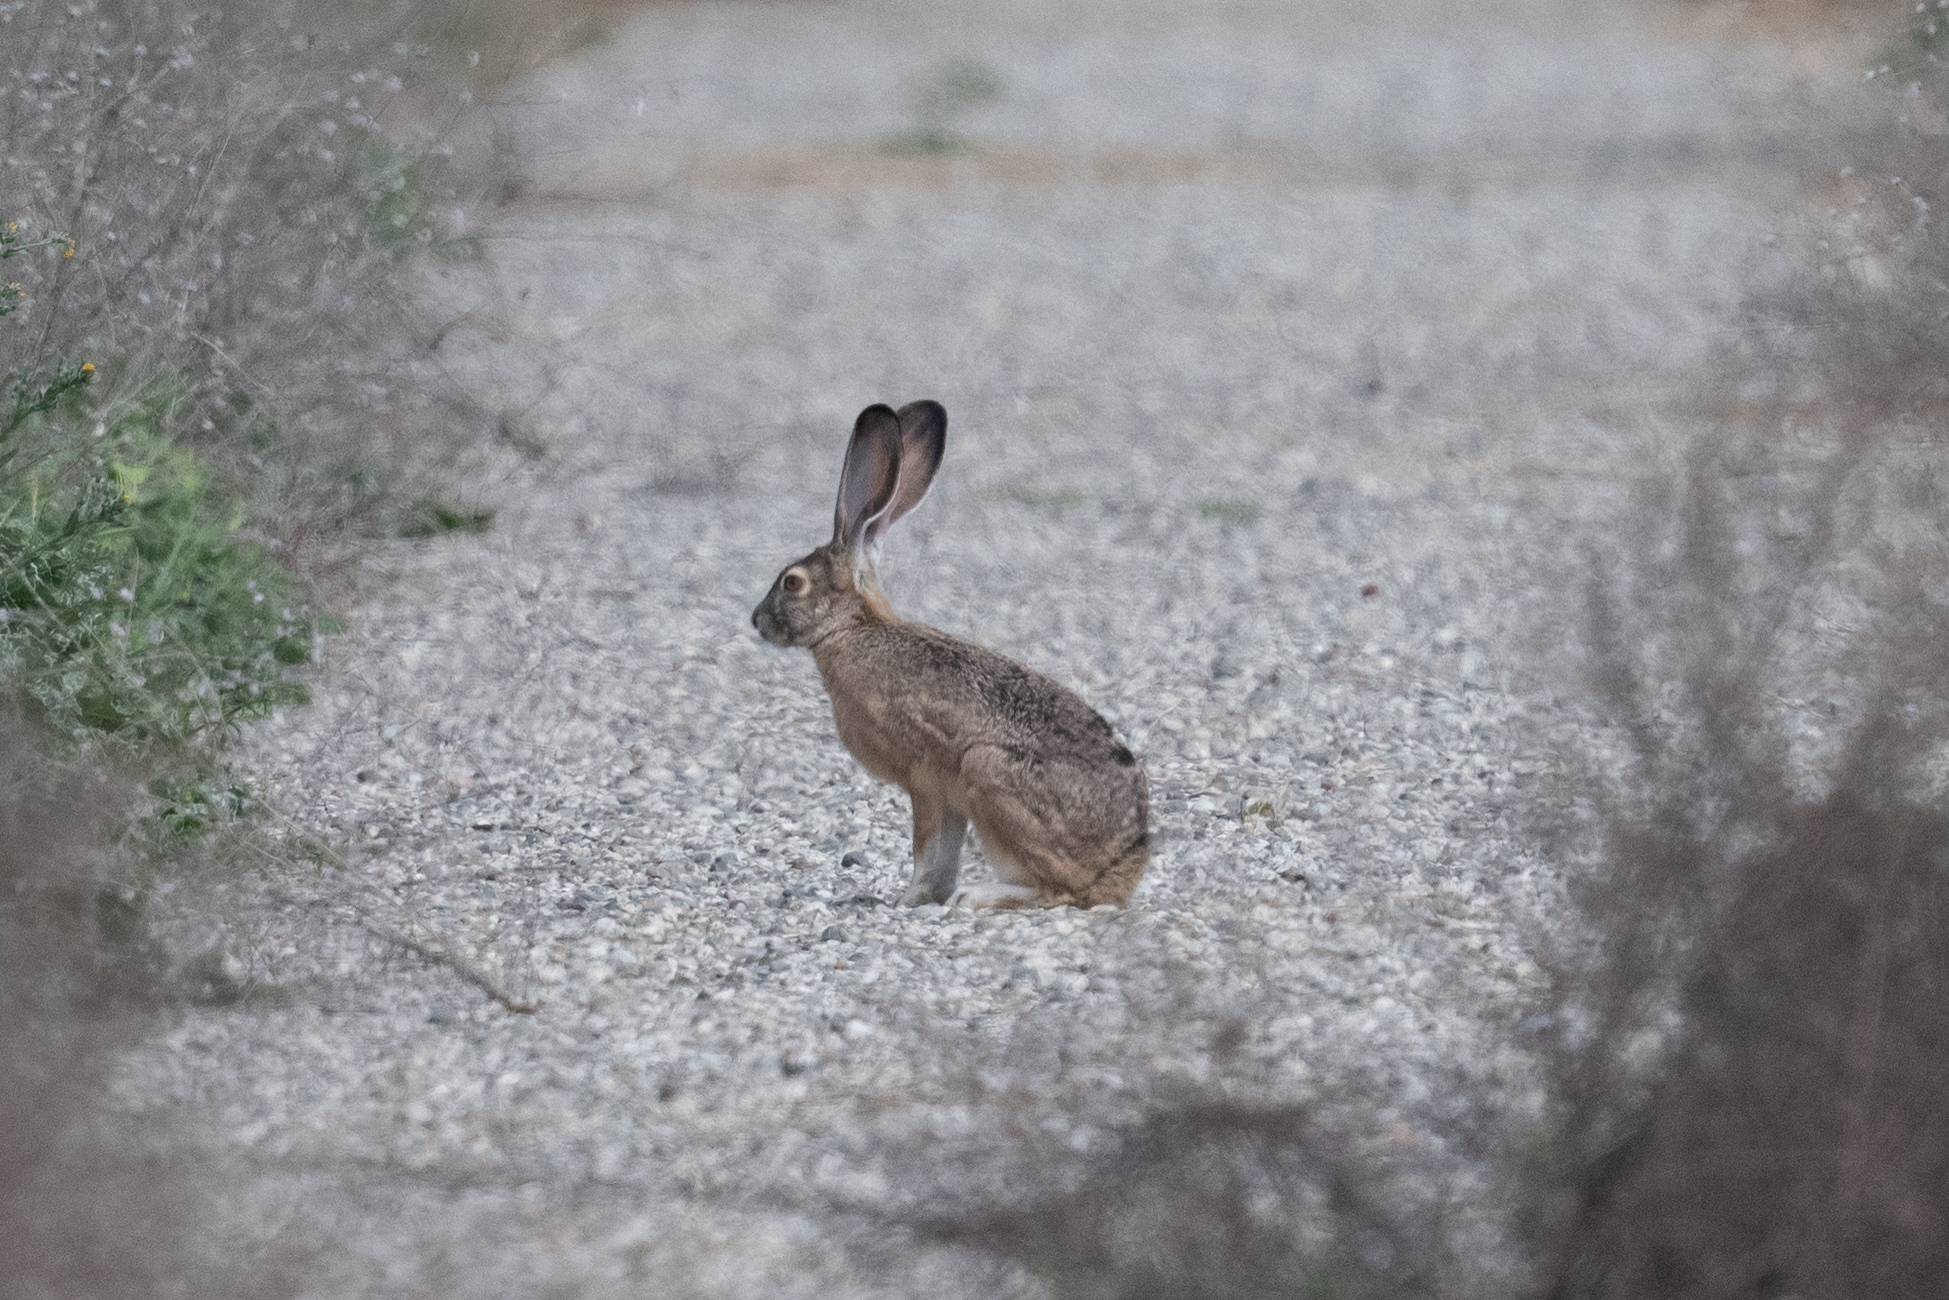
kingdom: Animalia
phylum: Chordata
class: Mammalia
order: Lagomorpha
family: Leporidae
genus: Lepus
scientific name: Lepus californicus
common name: Black-tailed jackrabbit
